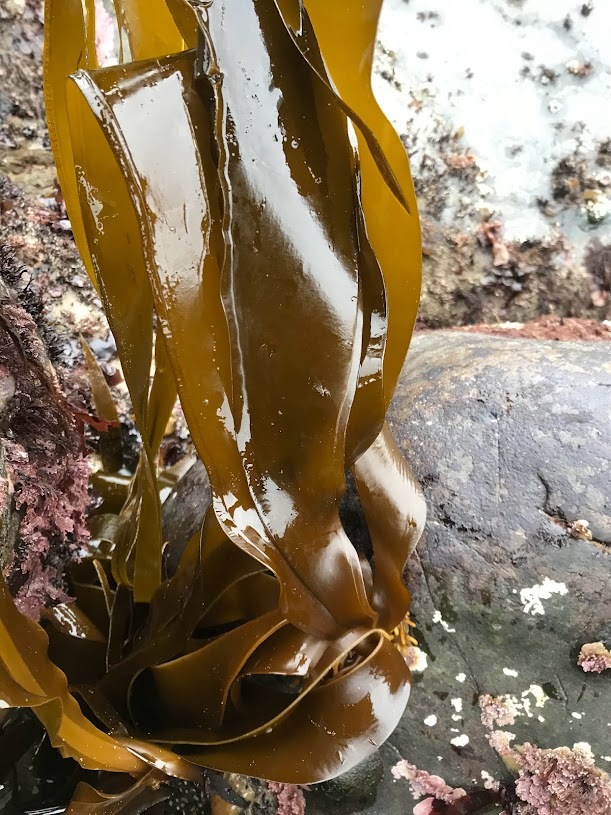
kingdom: Chromista
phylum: Ochrophyta
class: Phaeophyceae
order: Laminariales
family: Laminariaceae
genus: Hedophyllum
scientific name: Hedophyllum sessile
